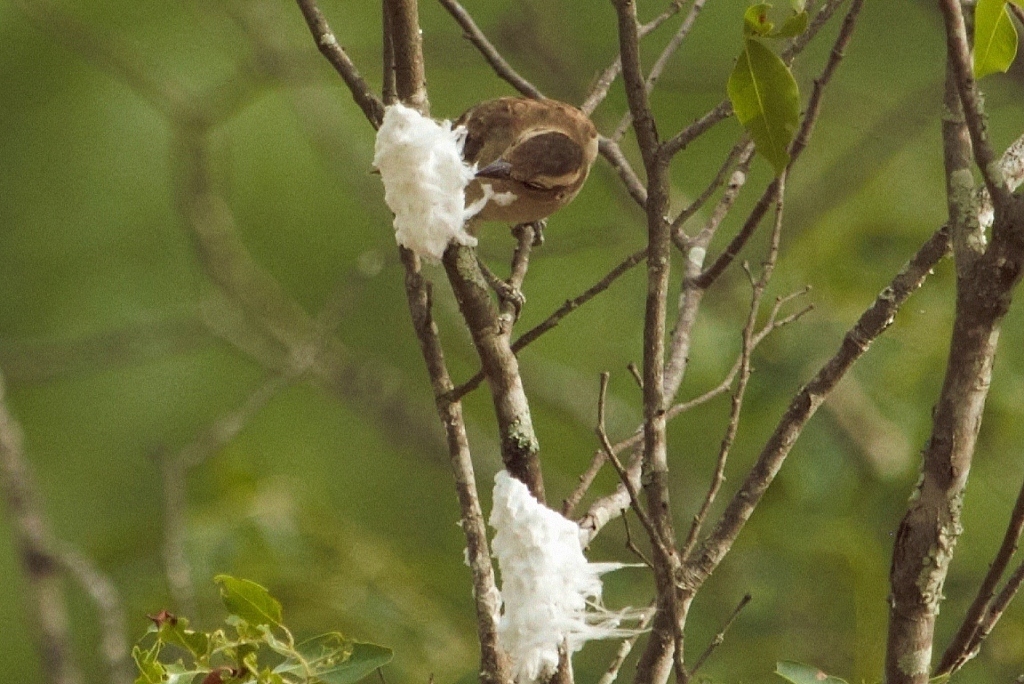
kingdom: Animalia
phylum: Chordata
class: Aves
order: Passeriformes
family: Passeridae
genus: Gymnoris
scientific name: Gymnoris superciliaris
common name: Yellow-throated petronia
